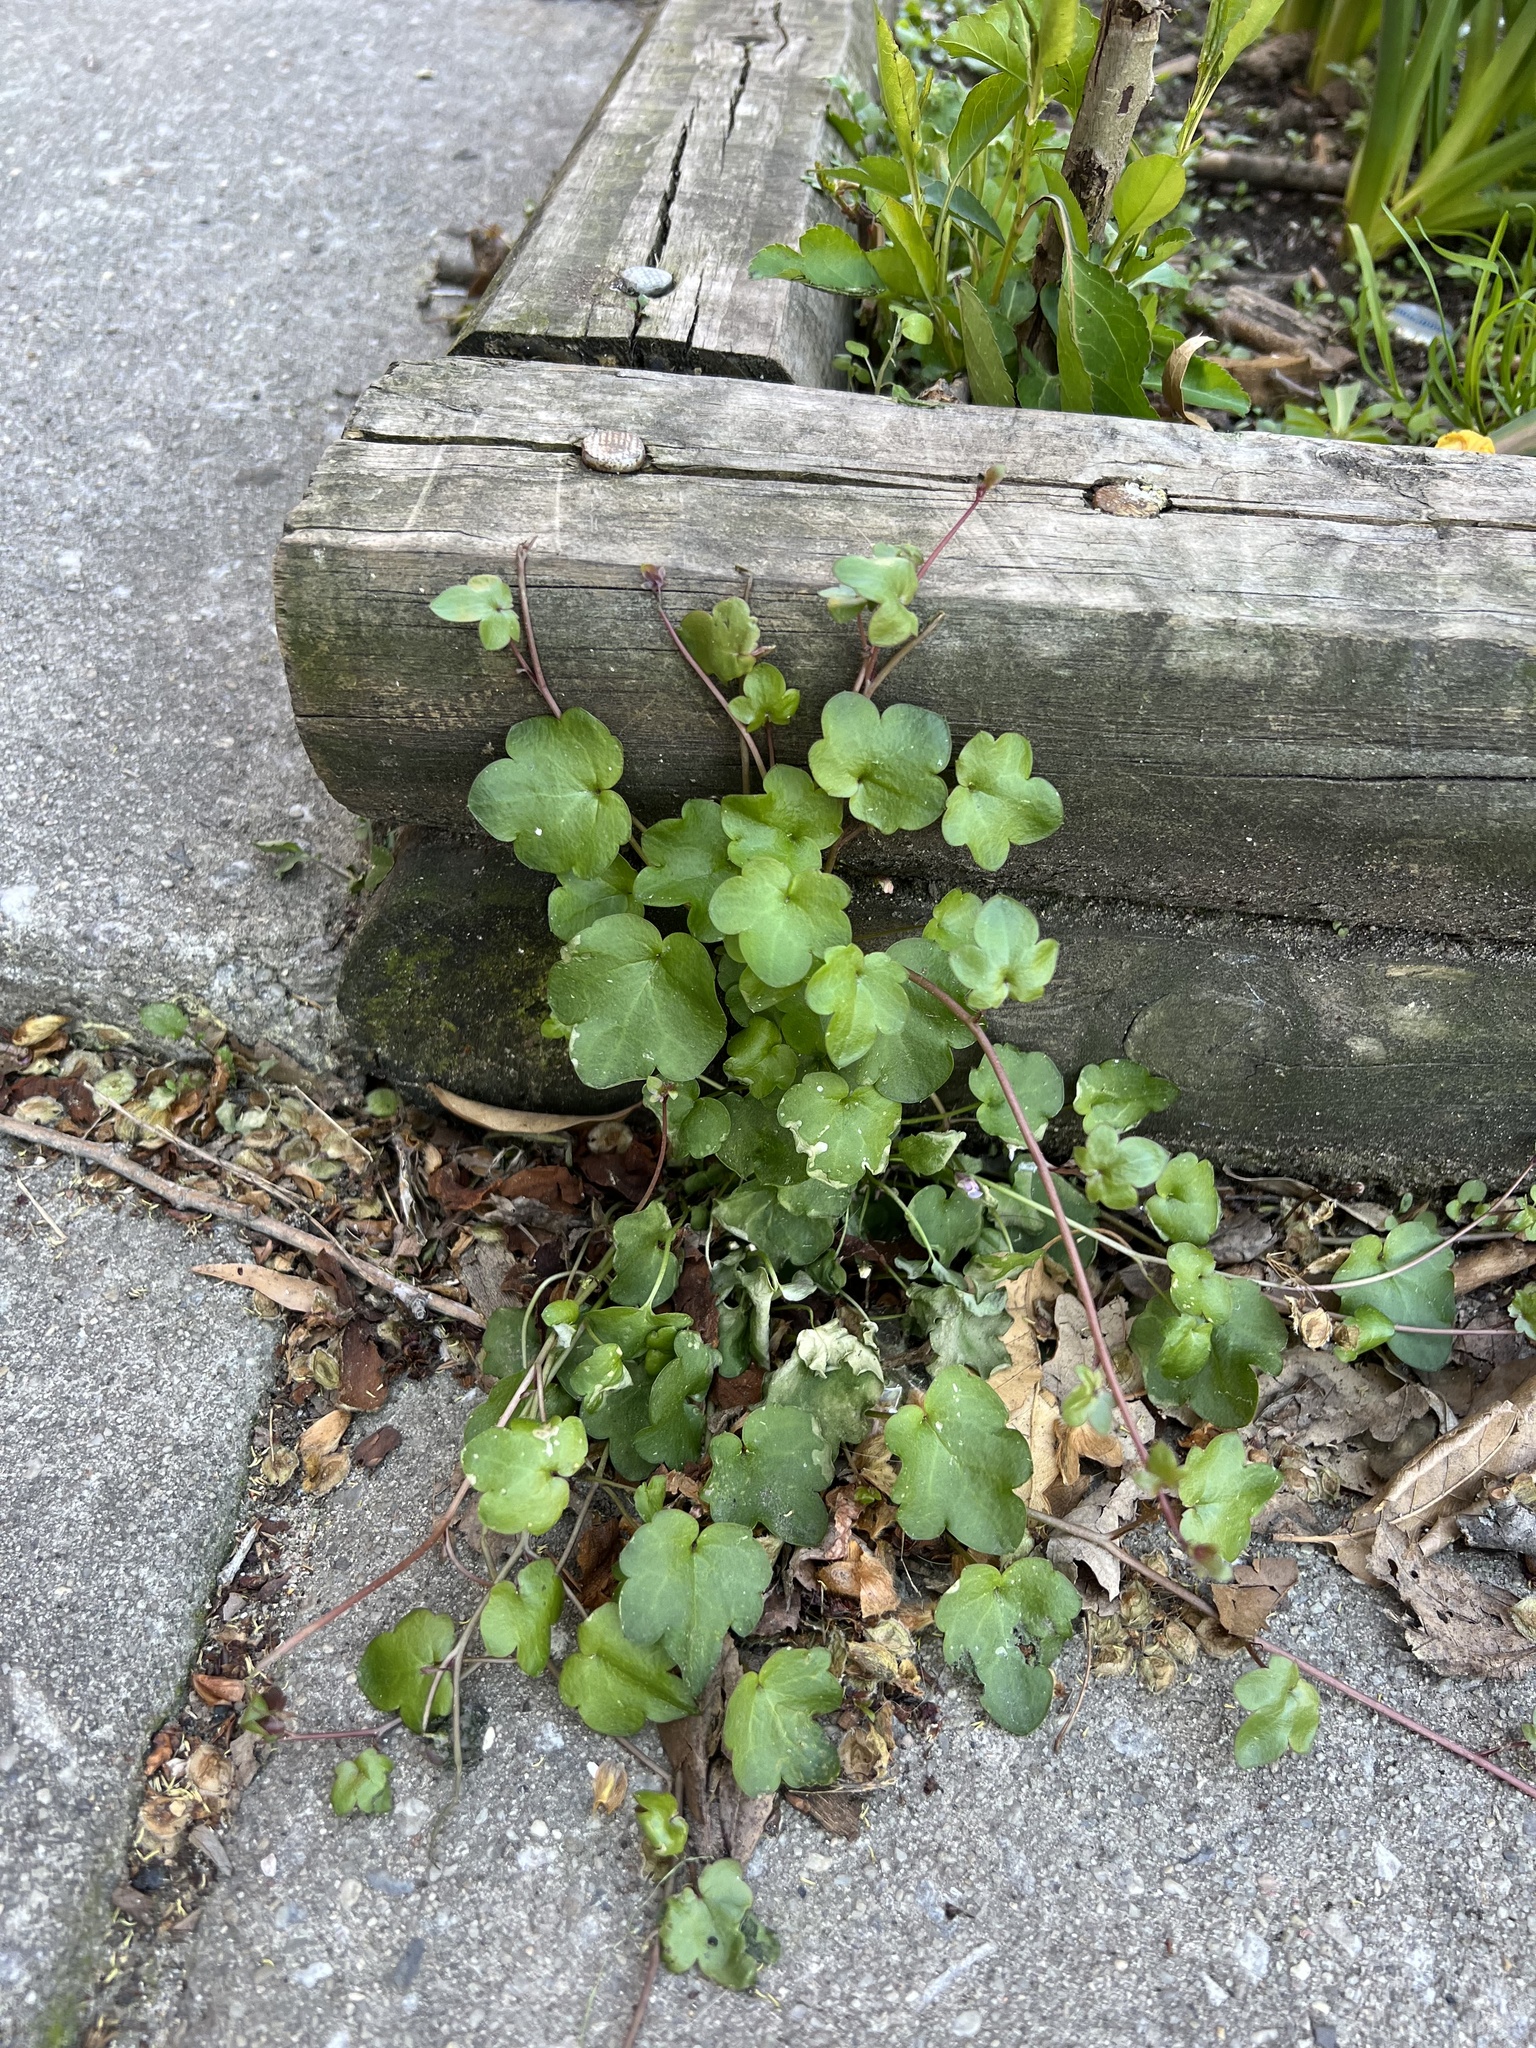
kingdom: Plantae
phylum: Tracheophyta
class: Magnoliopsida
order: Lamiales
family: Plantaginaceae
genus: Cymbalaria
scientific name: Cymbalaria muralis
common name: Ivy-leaved toadflax
